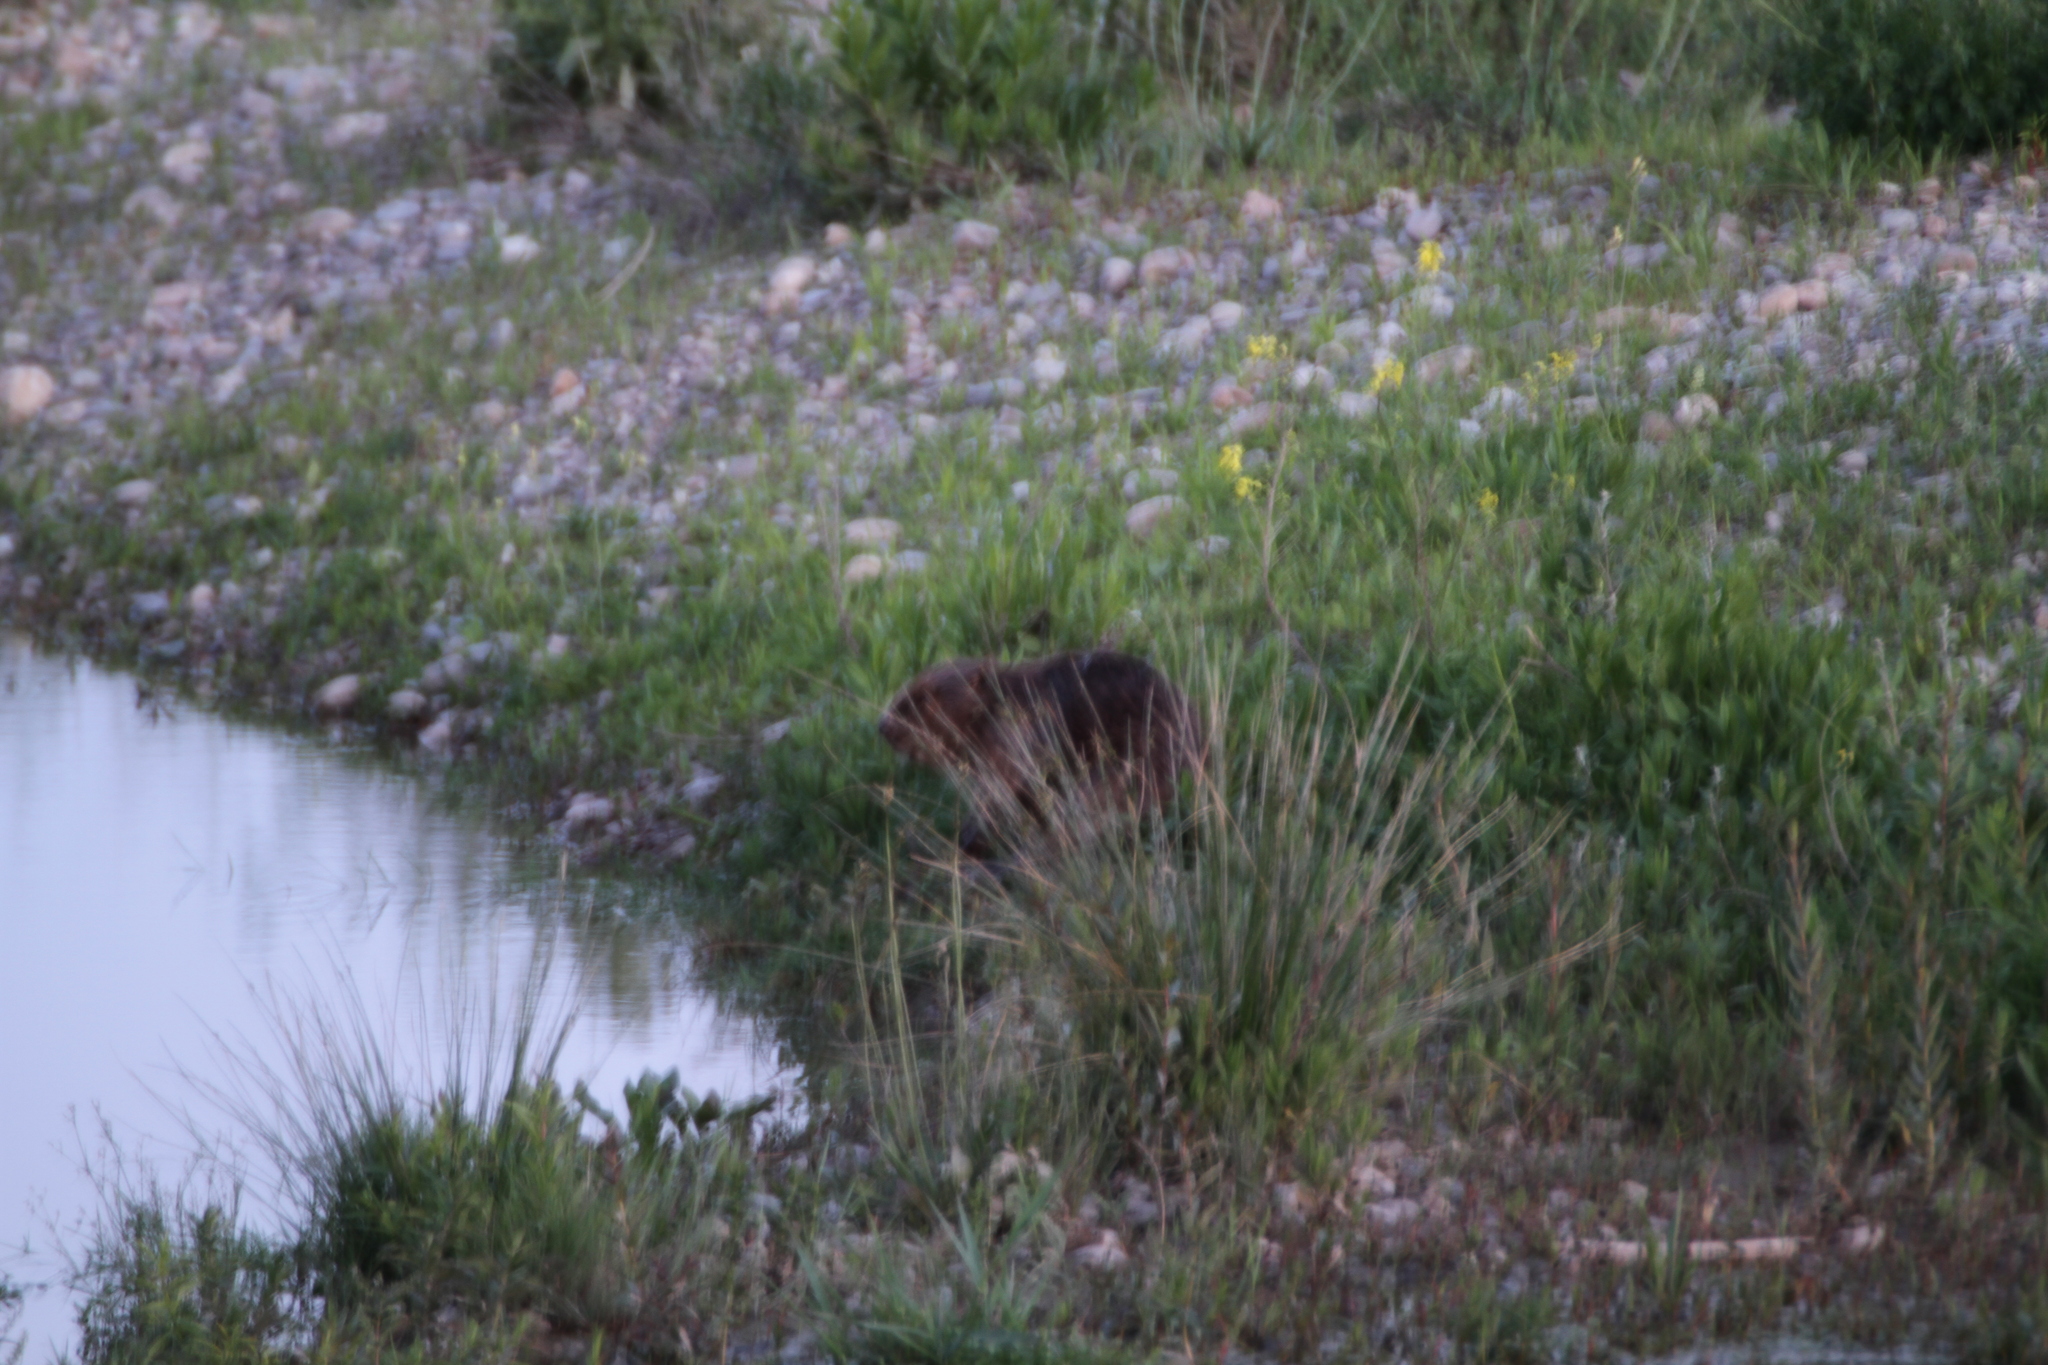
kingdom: Animalia
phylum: Chordata
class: Mammalia
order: Rodentia
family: Castoridae
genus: Castor
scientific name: Castor fiber
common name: Eurasian beaver
